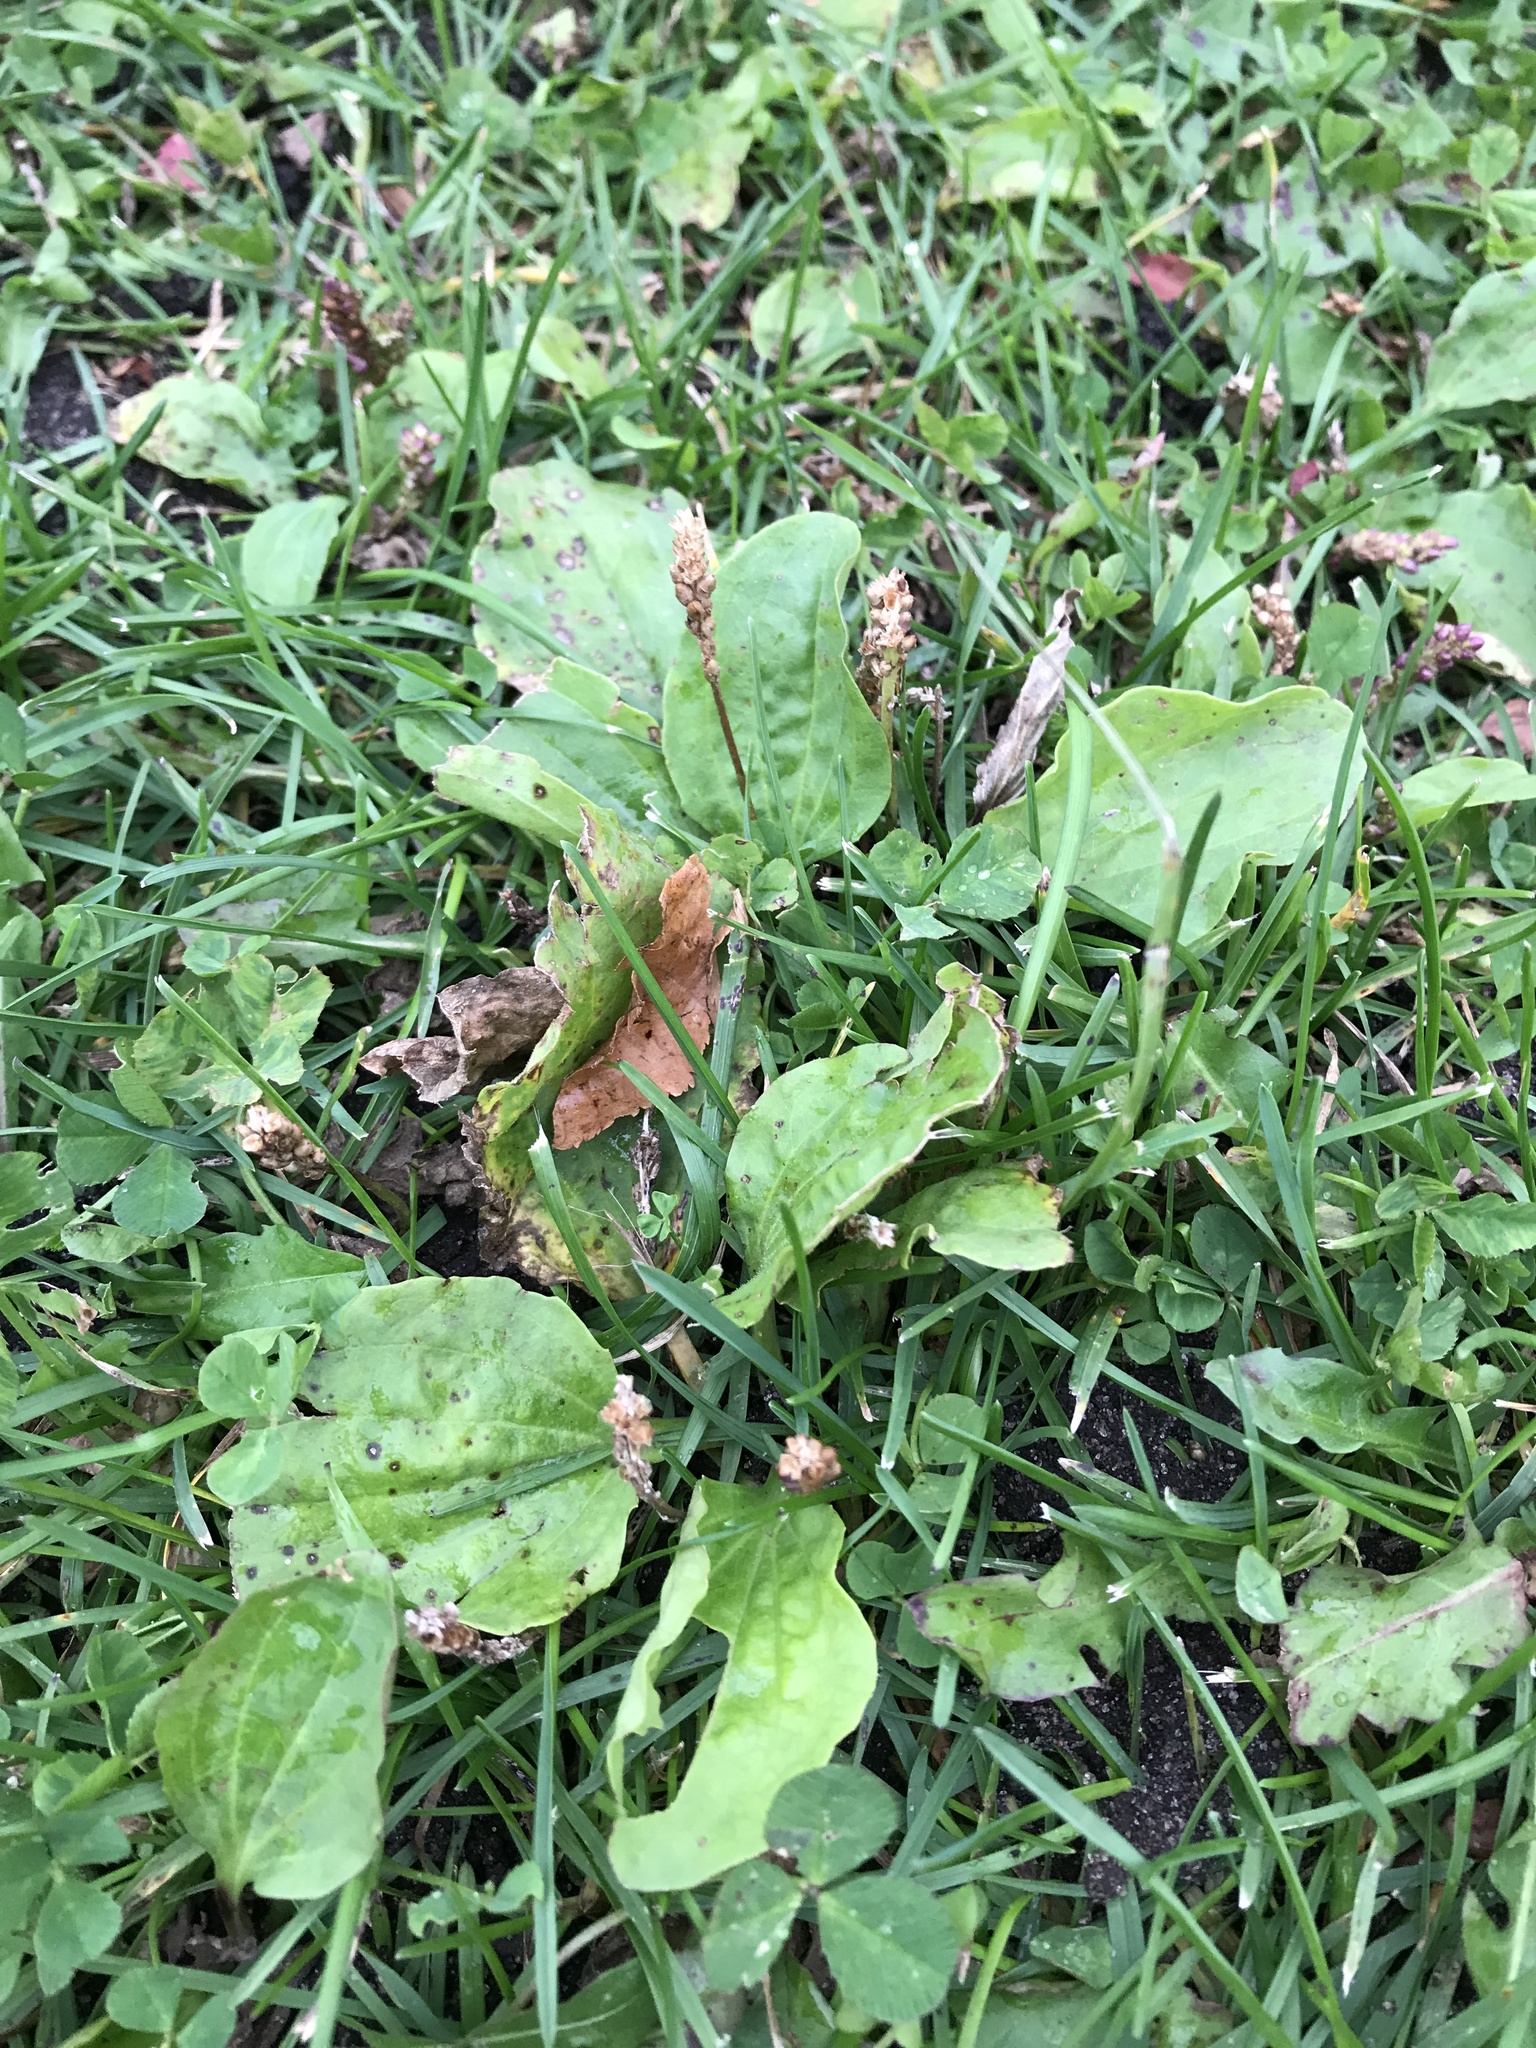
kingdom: Plantae
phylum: Tracheophyta
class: Magnoliopsida
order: Lamiales
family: Plantaginaceae
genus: Plantago
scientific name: Plantago major
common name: Common plantain
